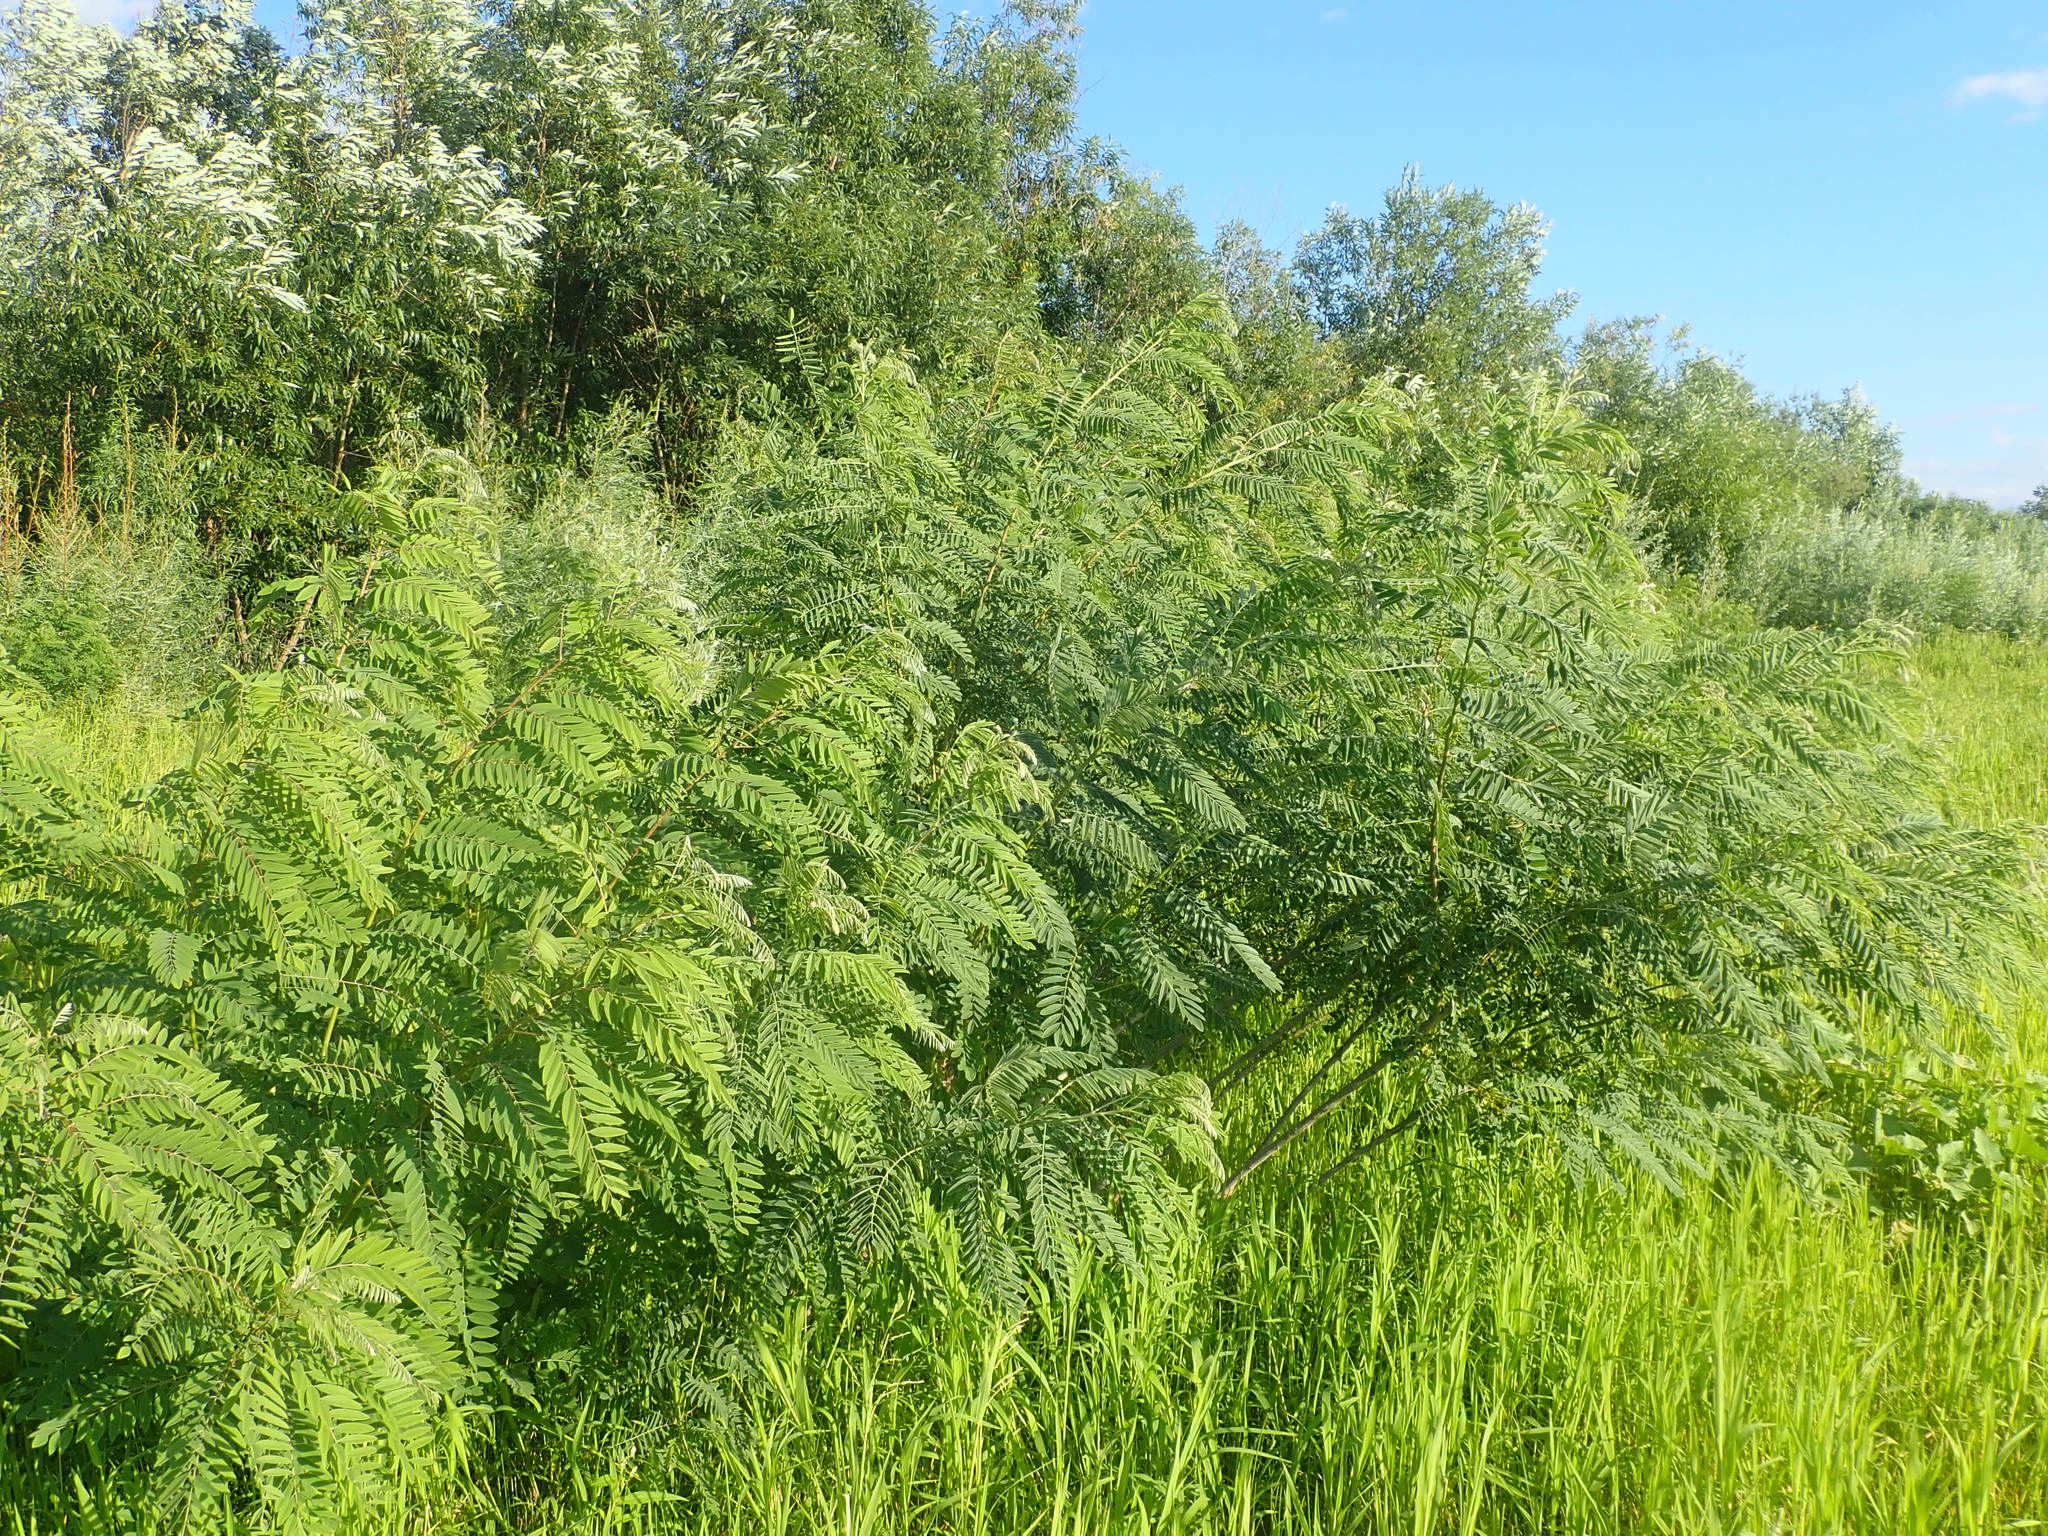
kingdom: Plantae
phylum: Tracheophyta
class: Magnoliopsida
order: Fabales
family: Fabaceae
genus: Amorpha
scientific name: Amorpha fruticosa
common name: False indigo
